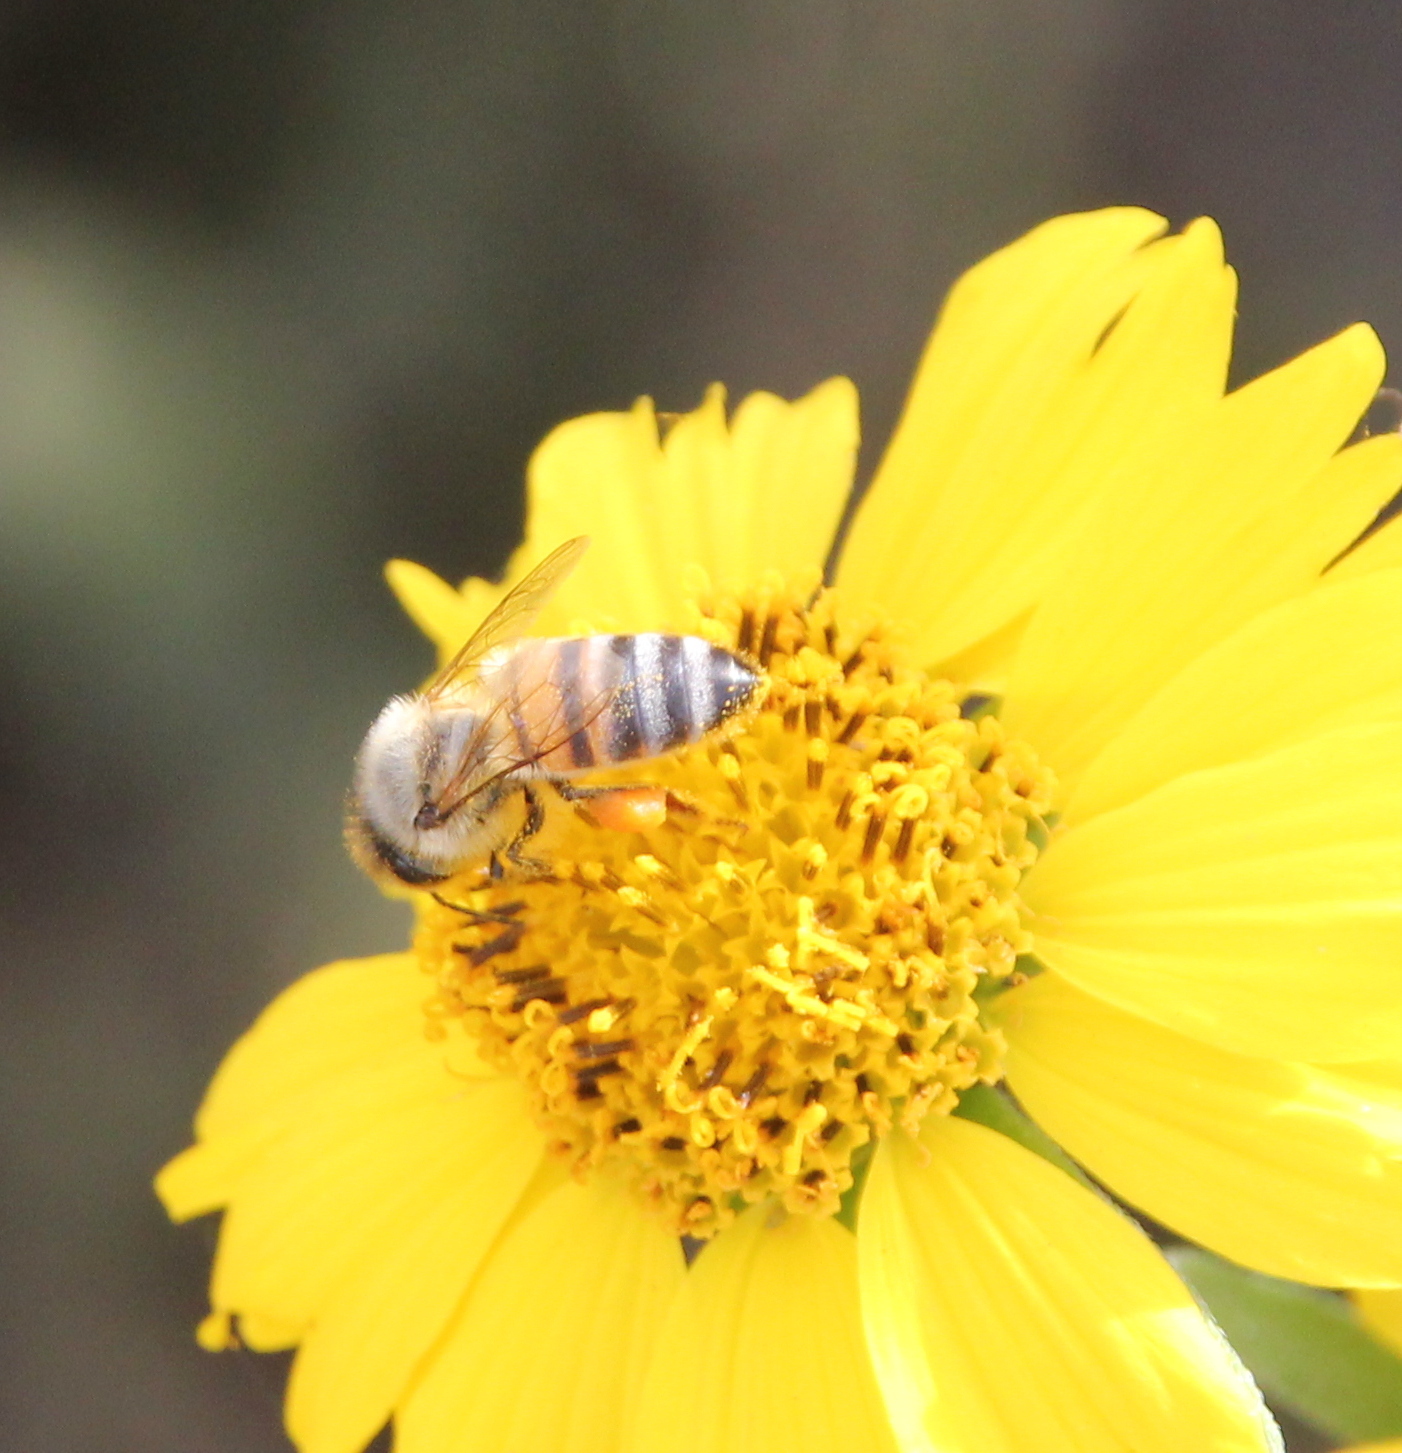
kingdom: Animalia
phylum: Arthropoda
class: Insecta
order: Hymenoptera
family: Apidae
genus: Apis
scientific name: Apis mellifera
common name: Honey bee
